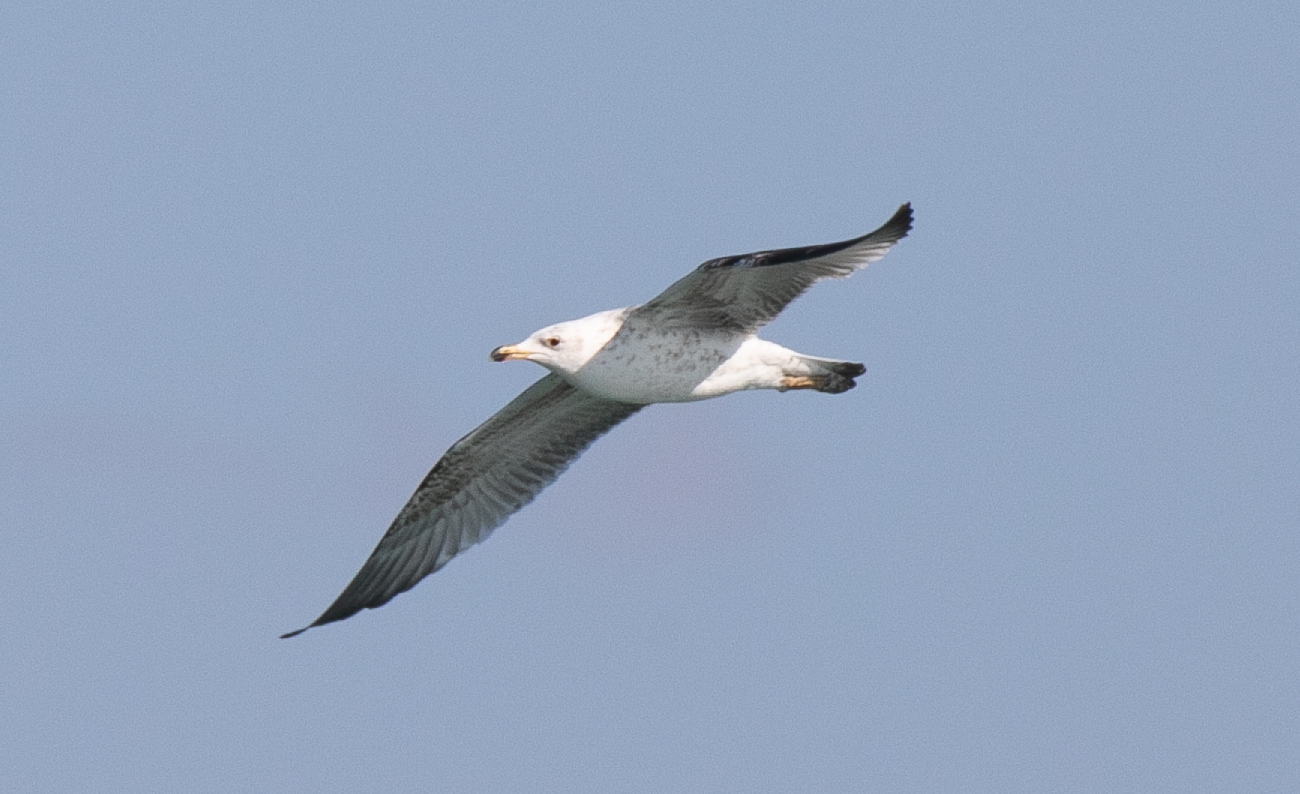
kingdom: Animalia
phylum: Chordata
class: Aves
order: Charadriiformes
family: Laridae
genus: Larus
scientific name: Larus michahellis
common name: Yellow-legged gull
